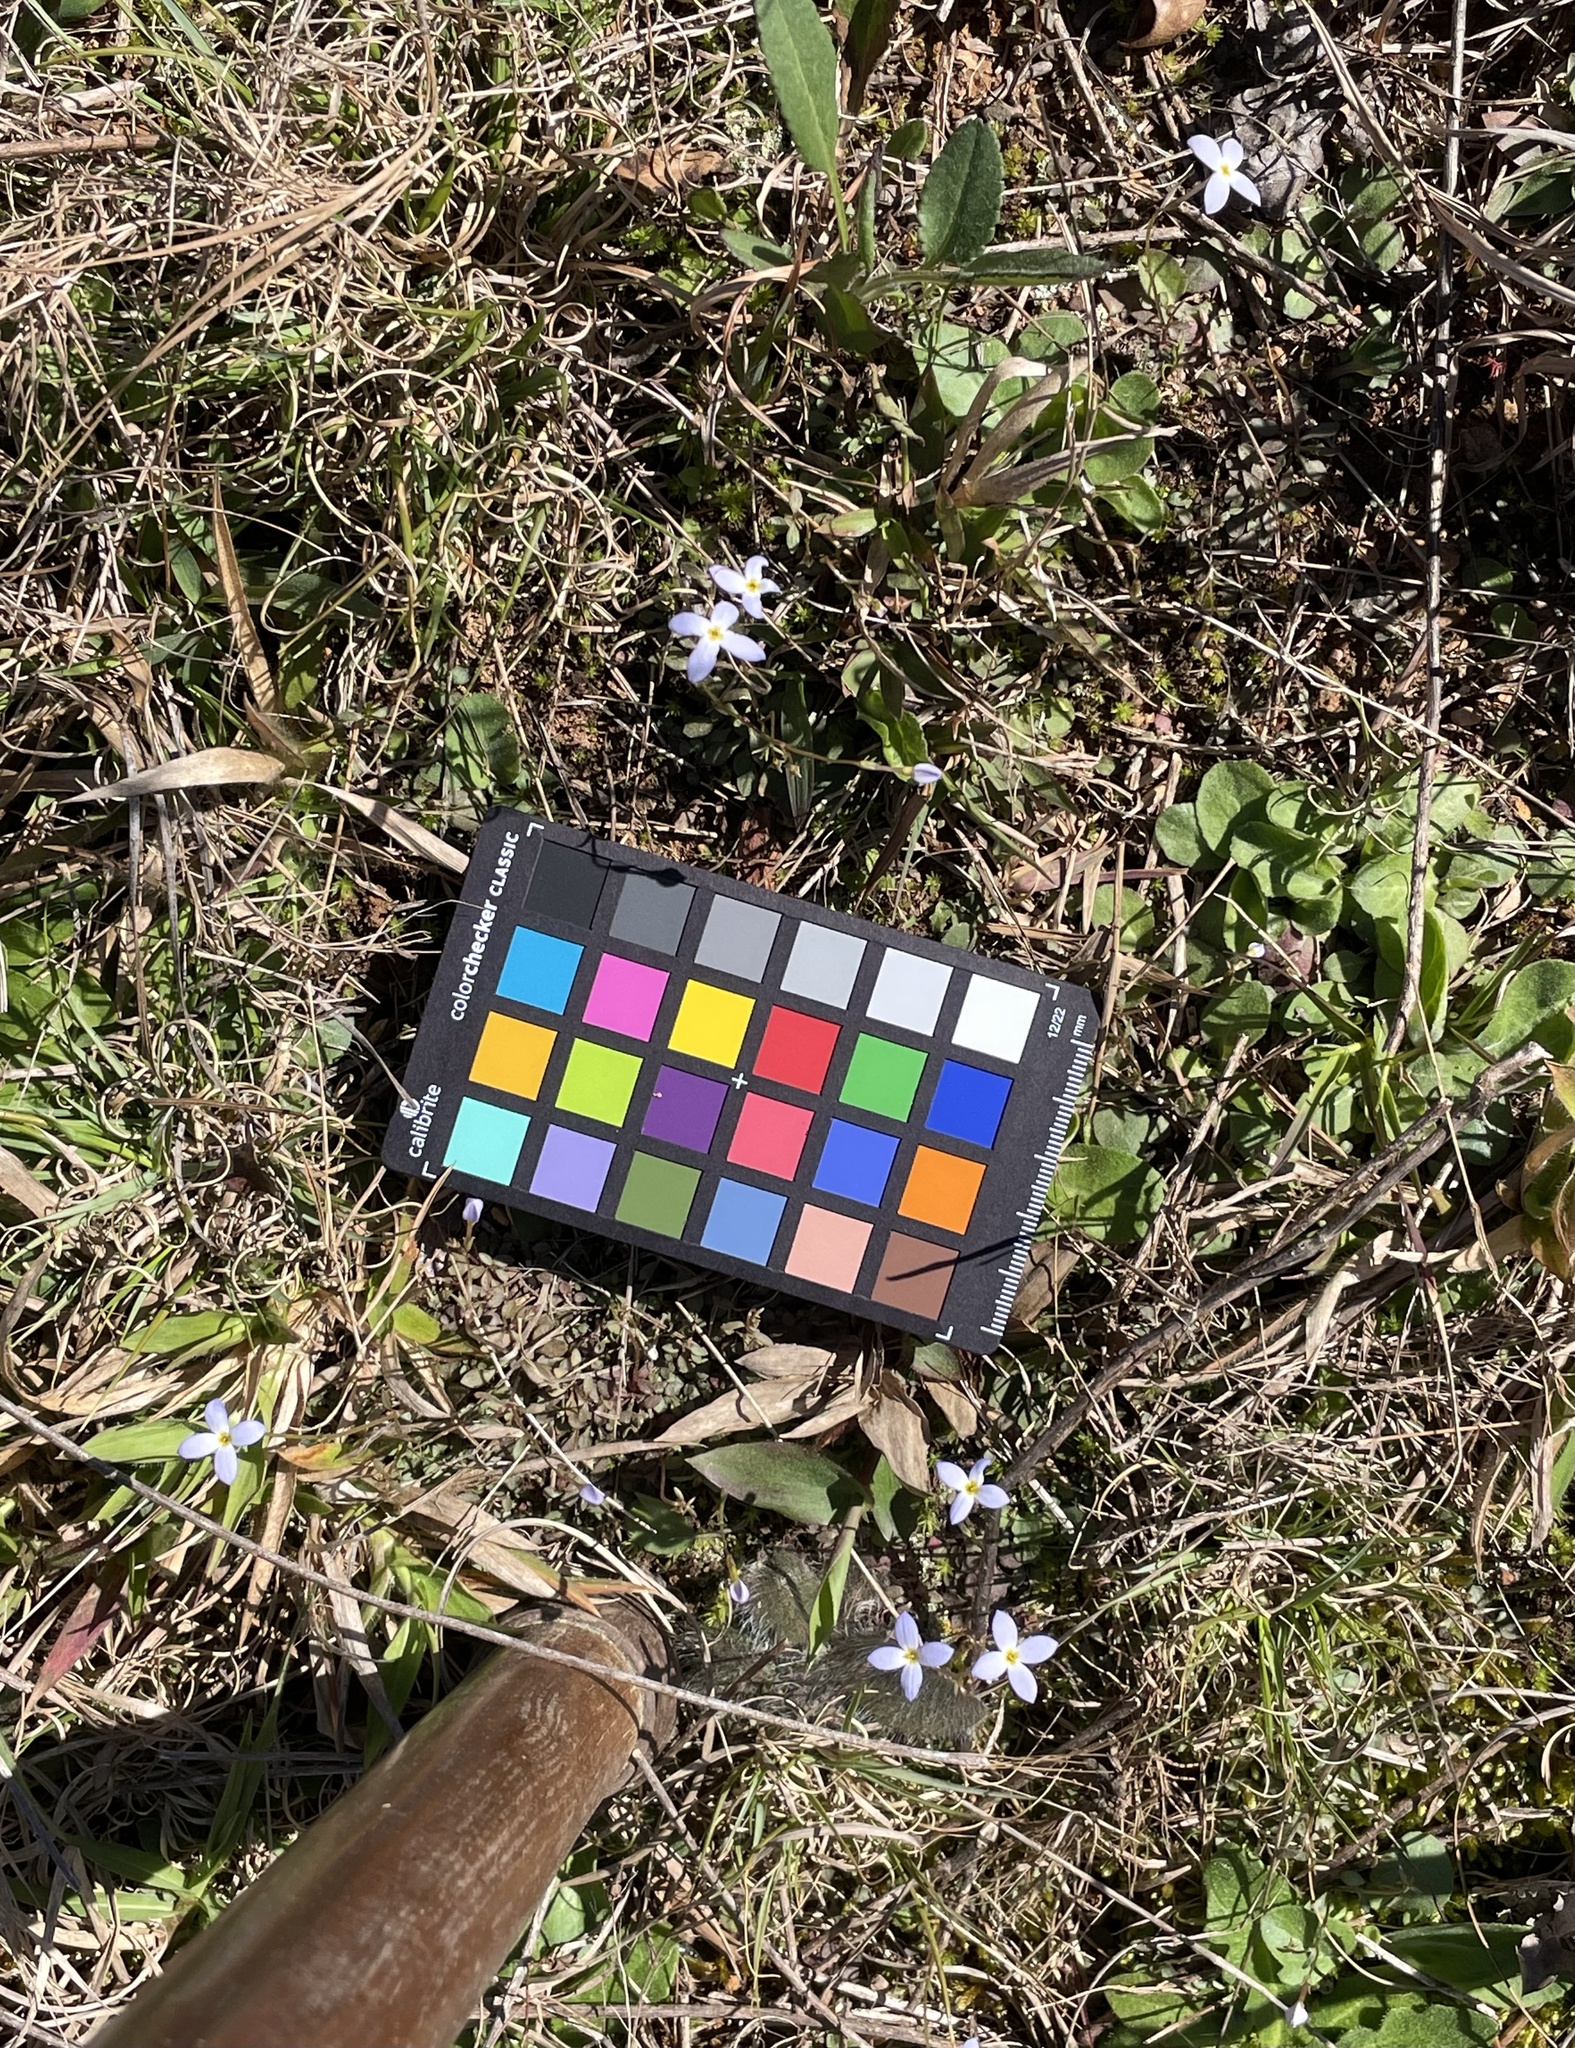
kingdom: Plantae
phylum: Tracheophyta
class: Magnoliopsida
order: Gentianales
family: Rubiaceae
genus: Houstonia
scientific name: Houstonia caerulea
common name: Bluets
